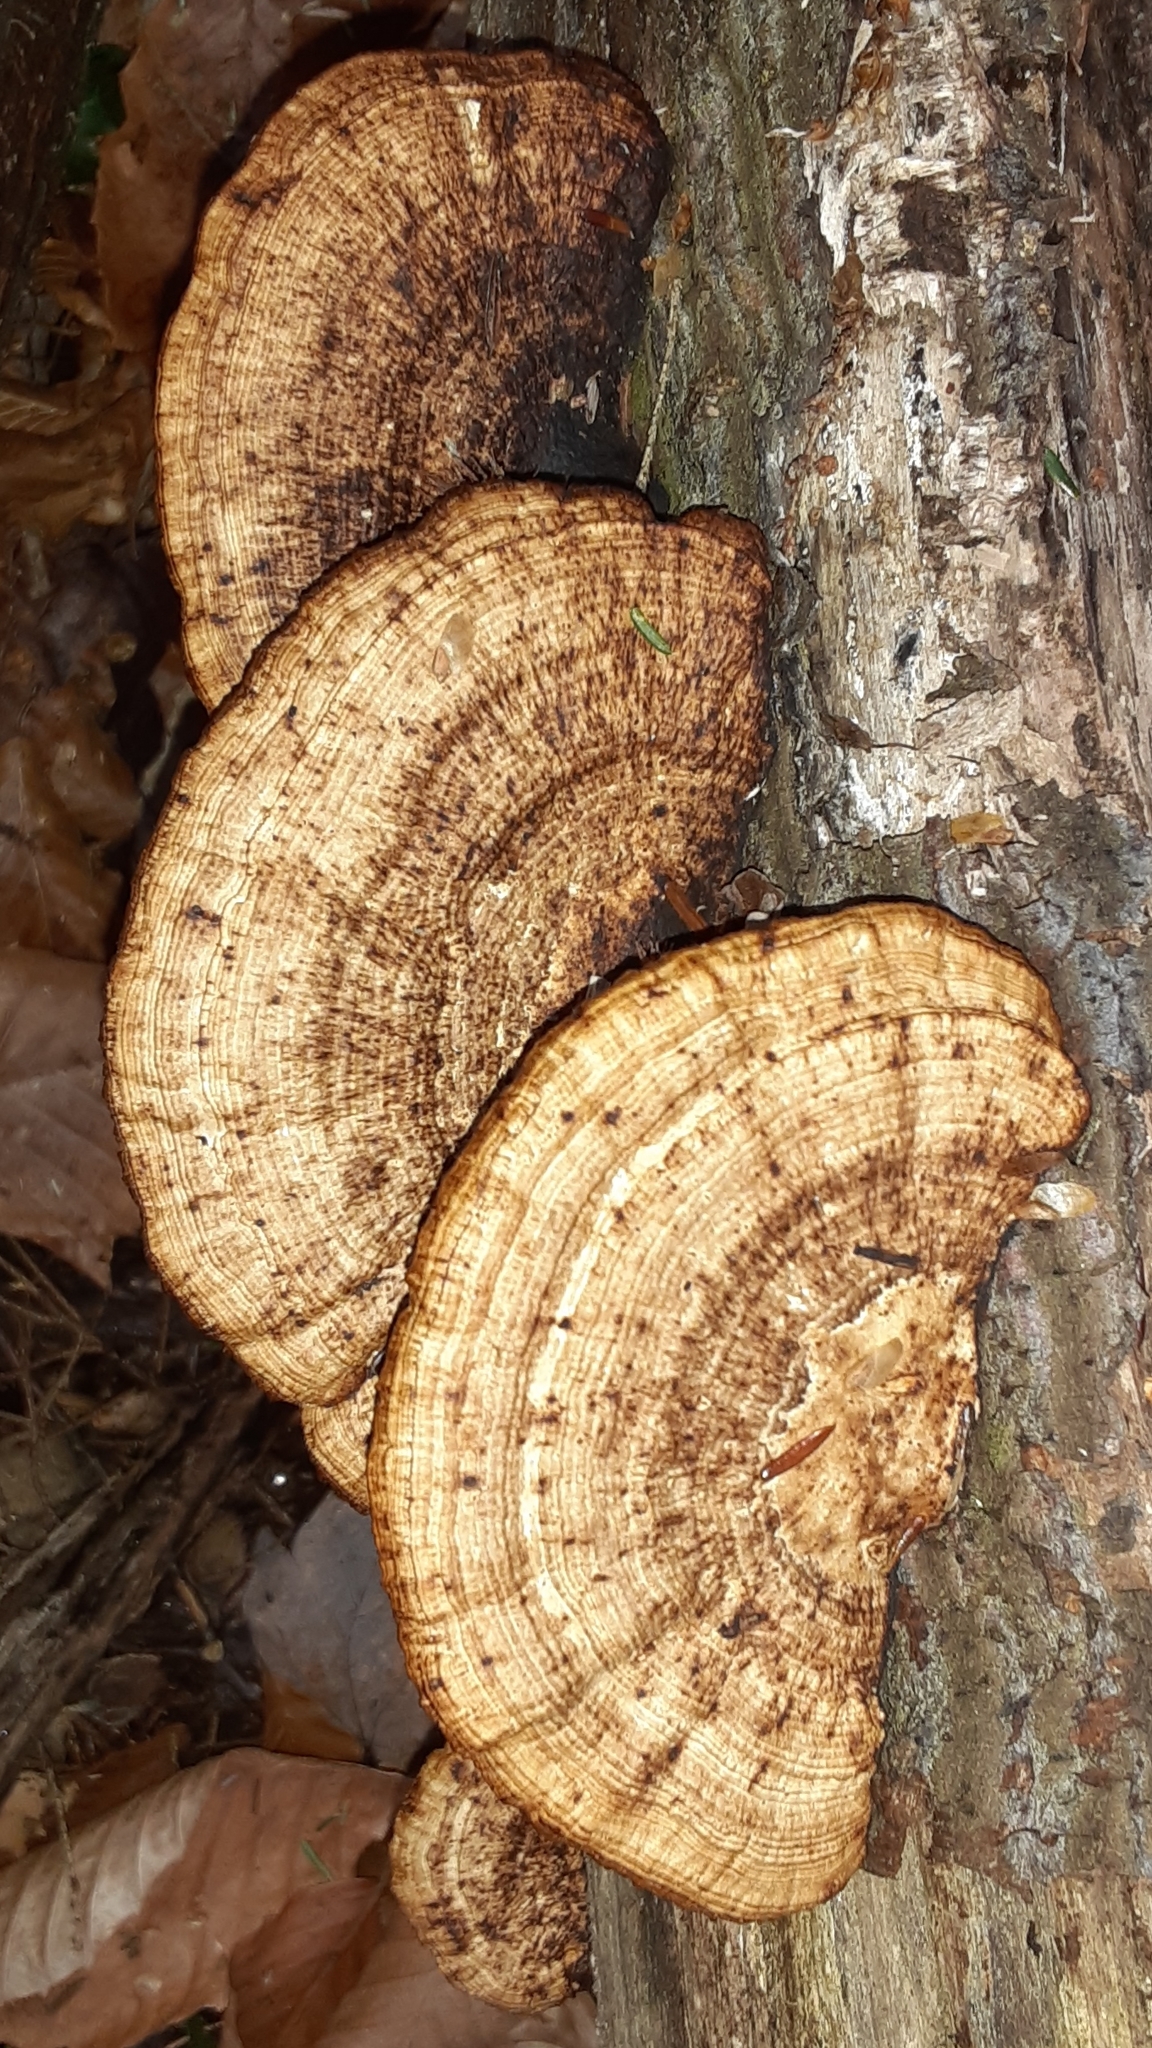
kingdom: Fungi
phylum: Basidiomycota
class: Agaricomycetes
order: Polyporales
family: Polyporaceae
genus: Daedaleopsis
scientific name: Daedaleopsis confragosa
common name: Blushing bracket
